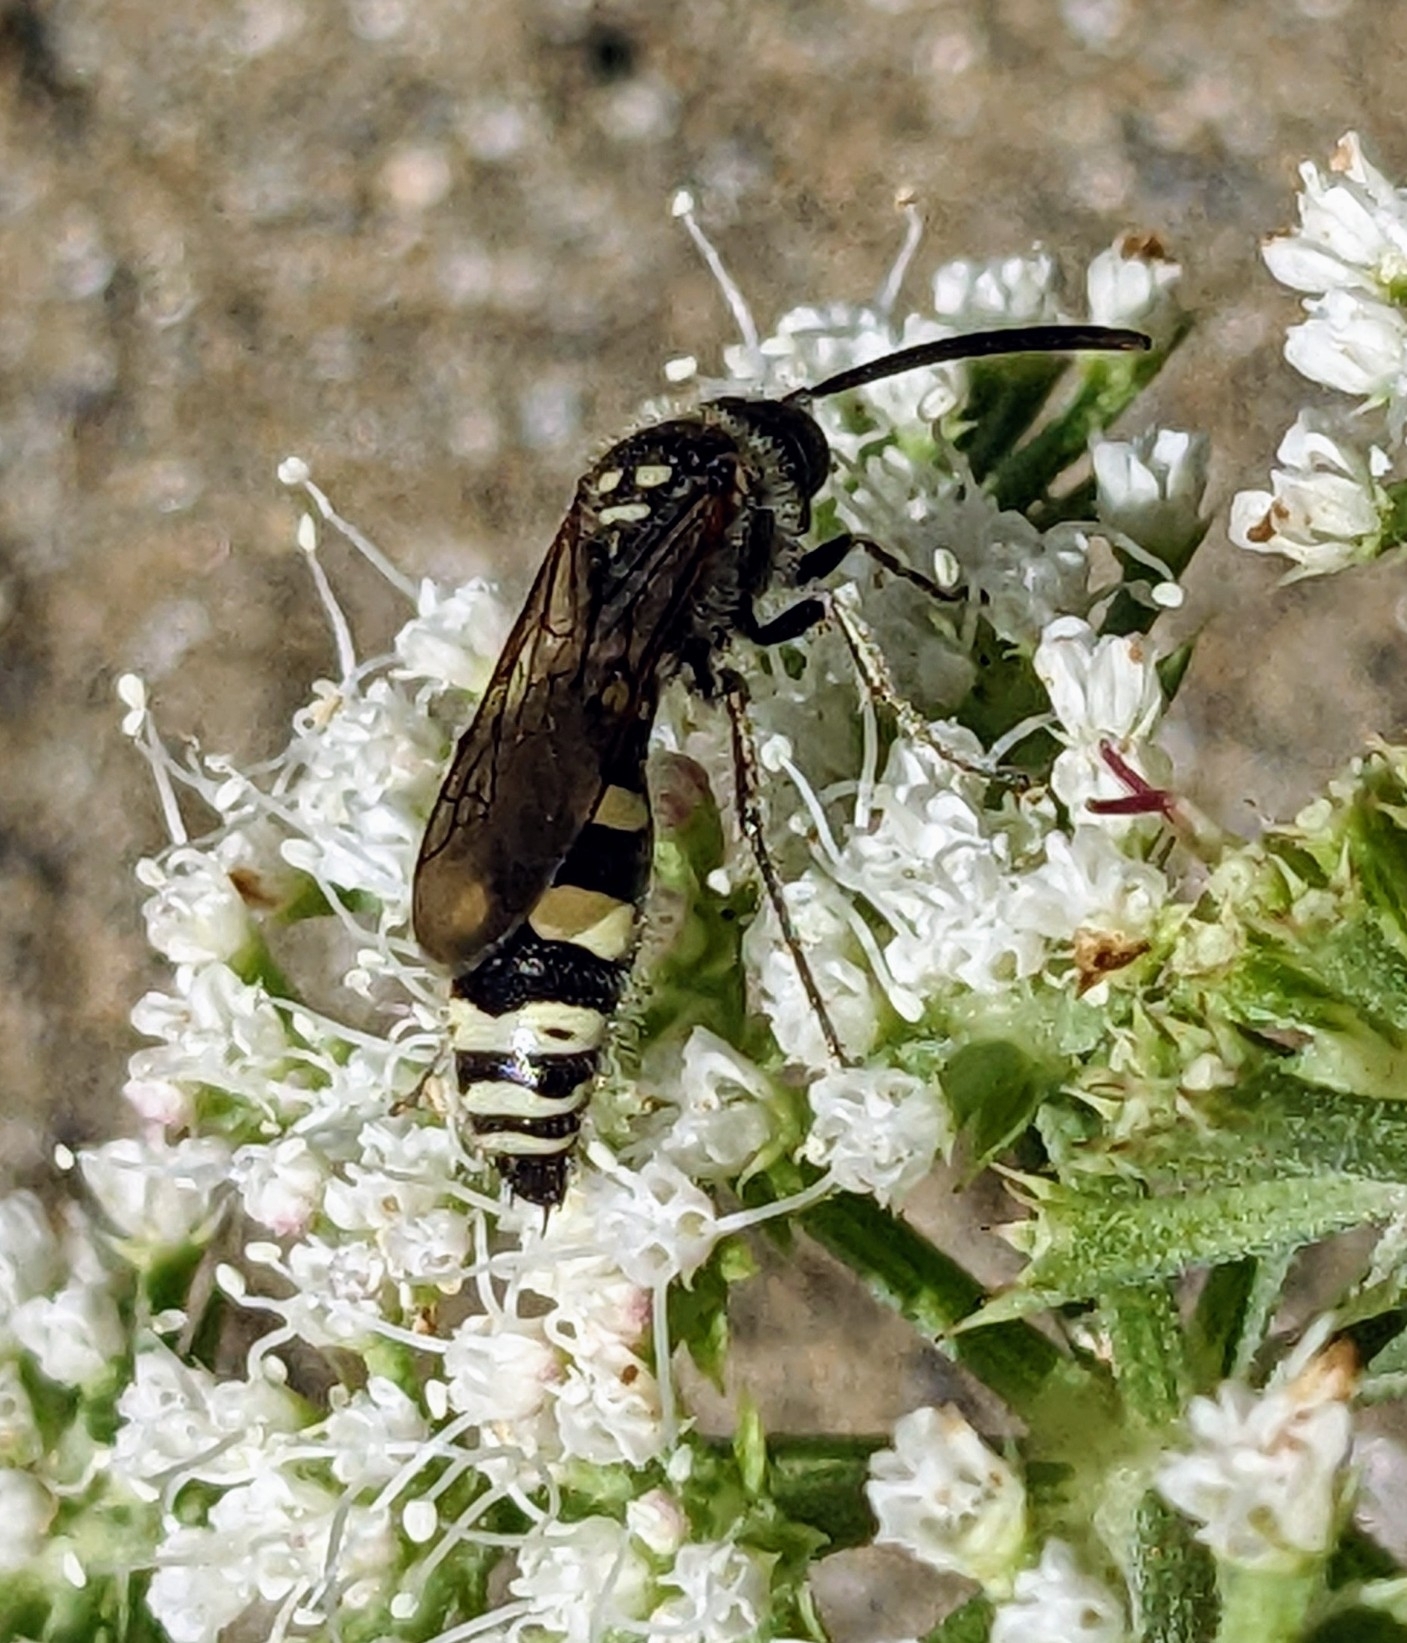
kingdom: Animalia
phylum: Arthropoda
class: Insecta
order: Hymenoptera
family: Vespidae
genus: Vespa
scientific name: Vespa sexmaculata
